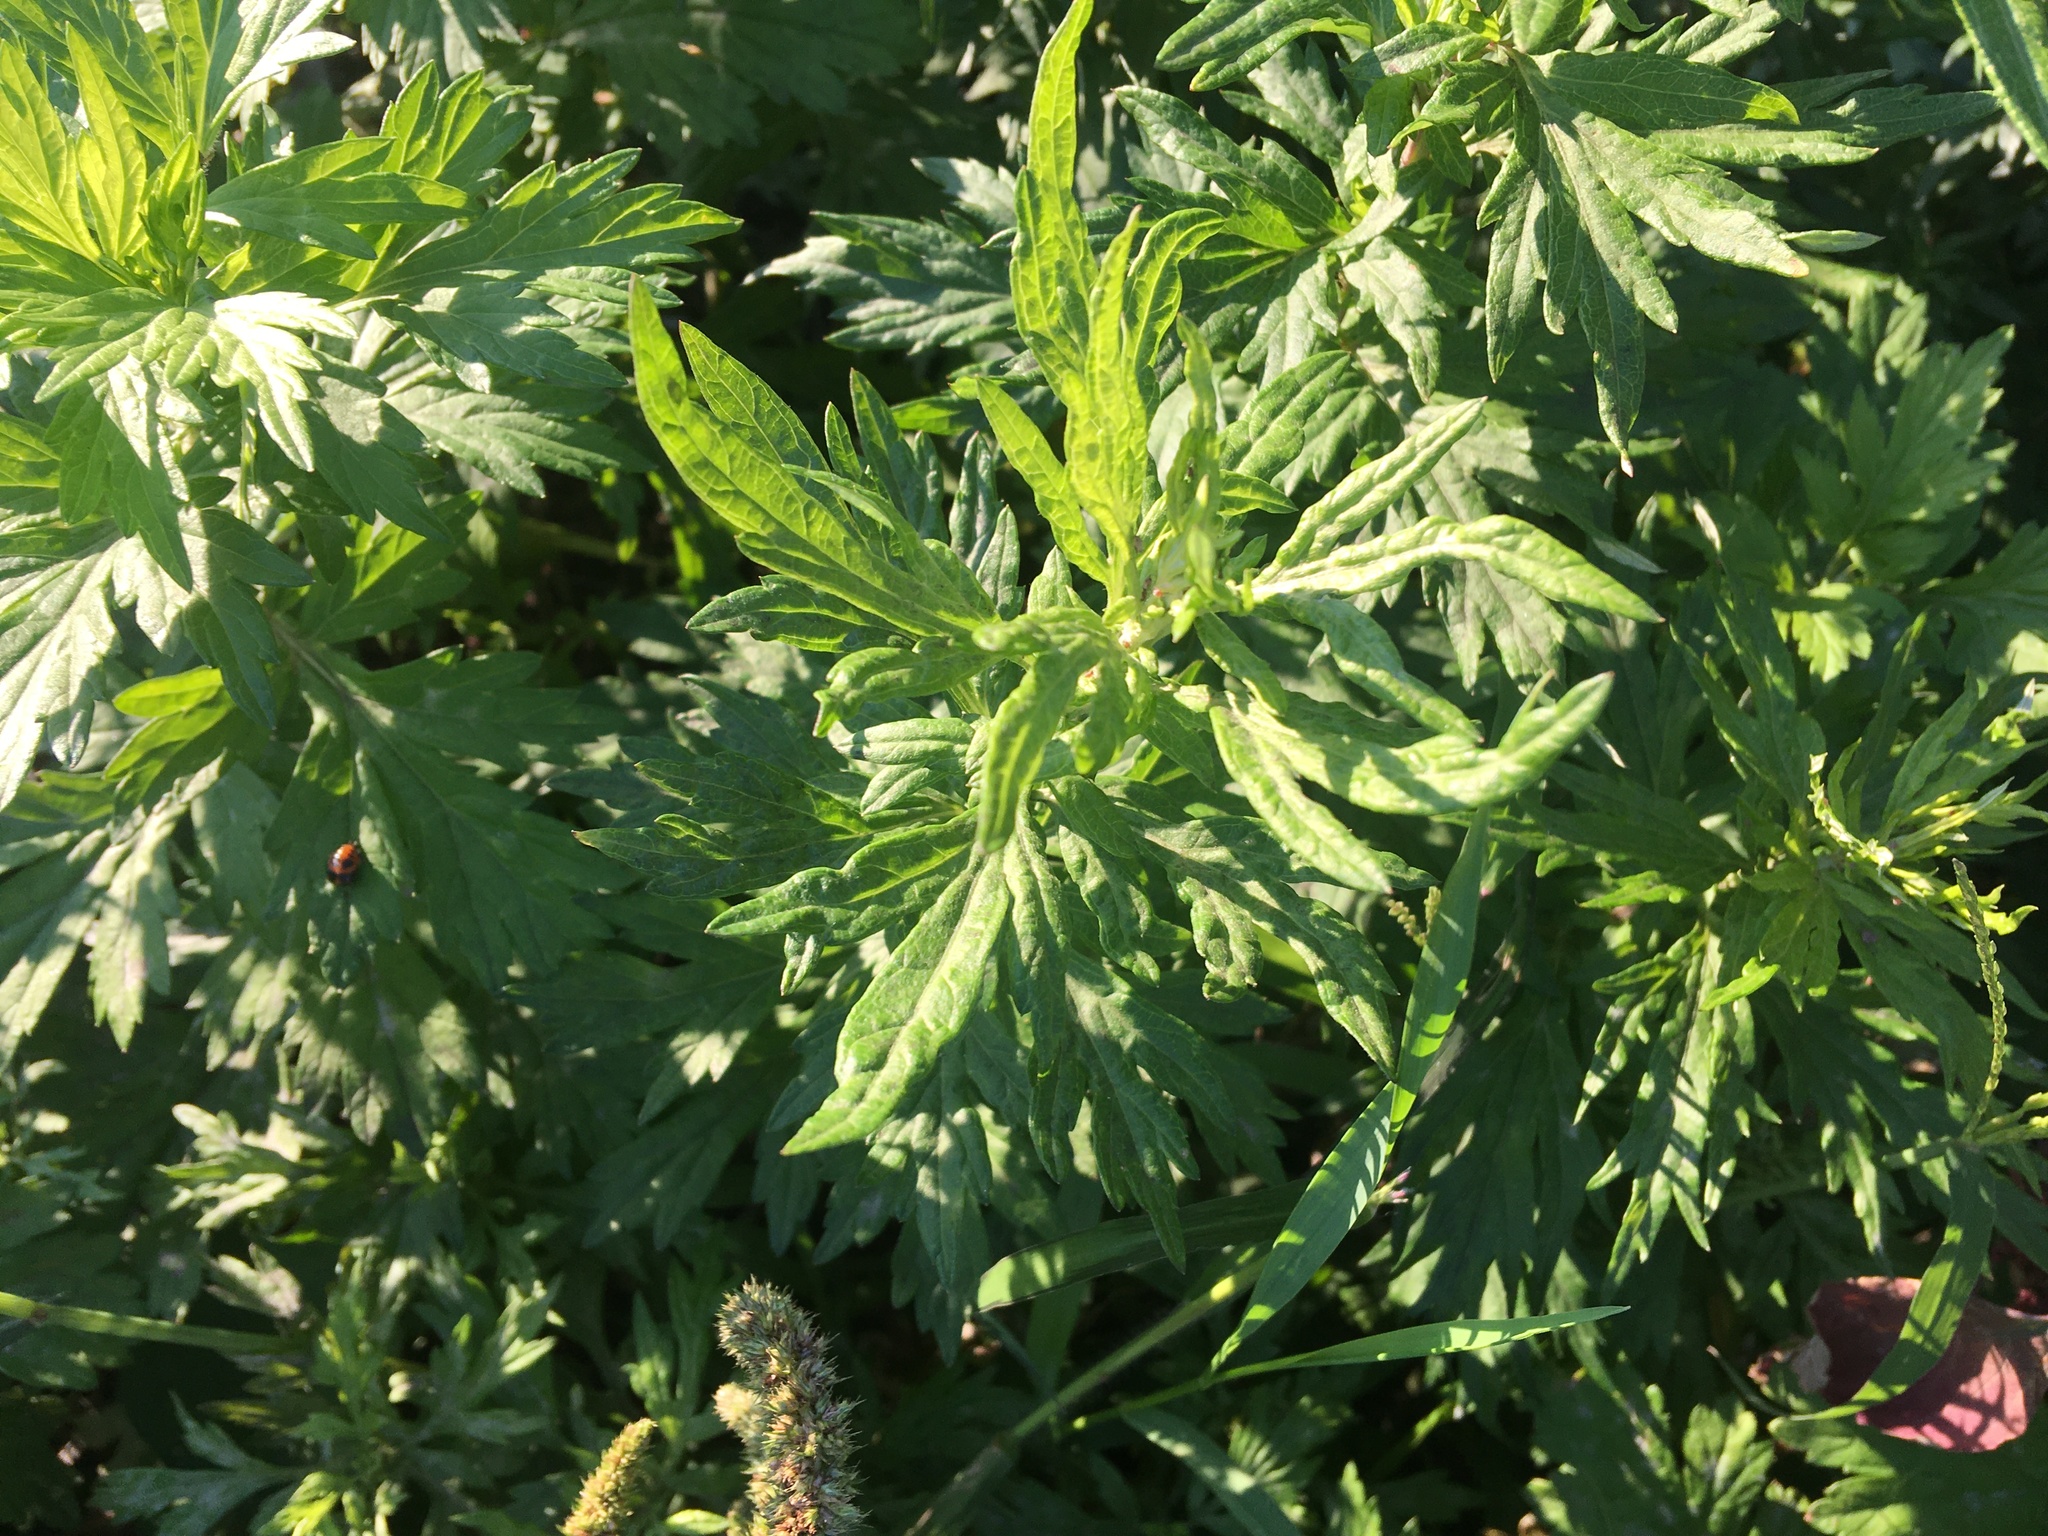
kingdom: Plantae
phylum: Tracheophyta
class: Magnoliopsida
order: Asterales
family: Asteraceae
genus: Artemisia
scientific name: Artemisia vulgaris
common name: Mugwort
